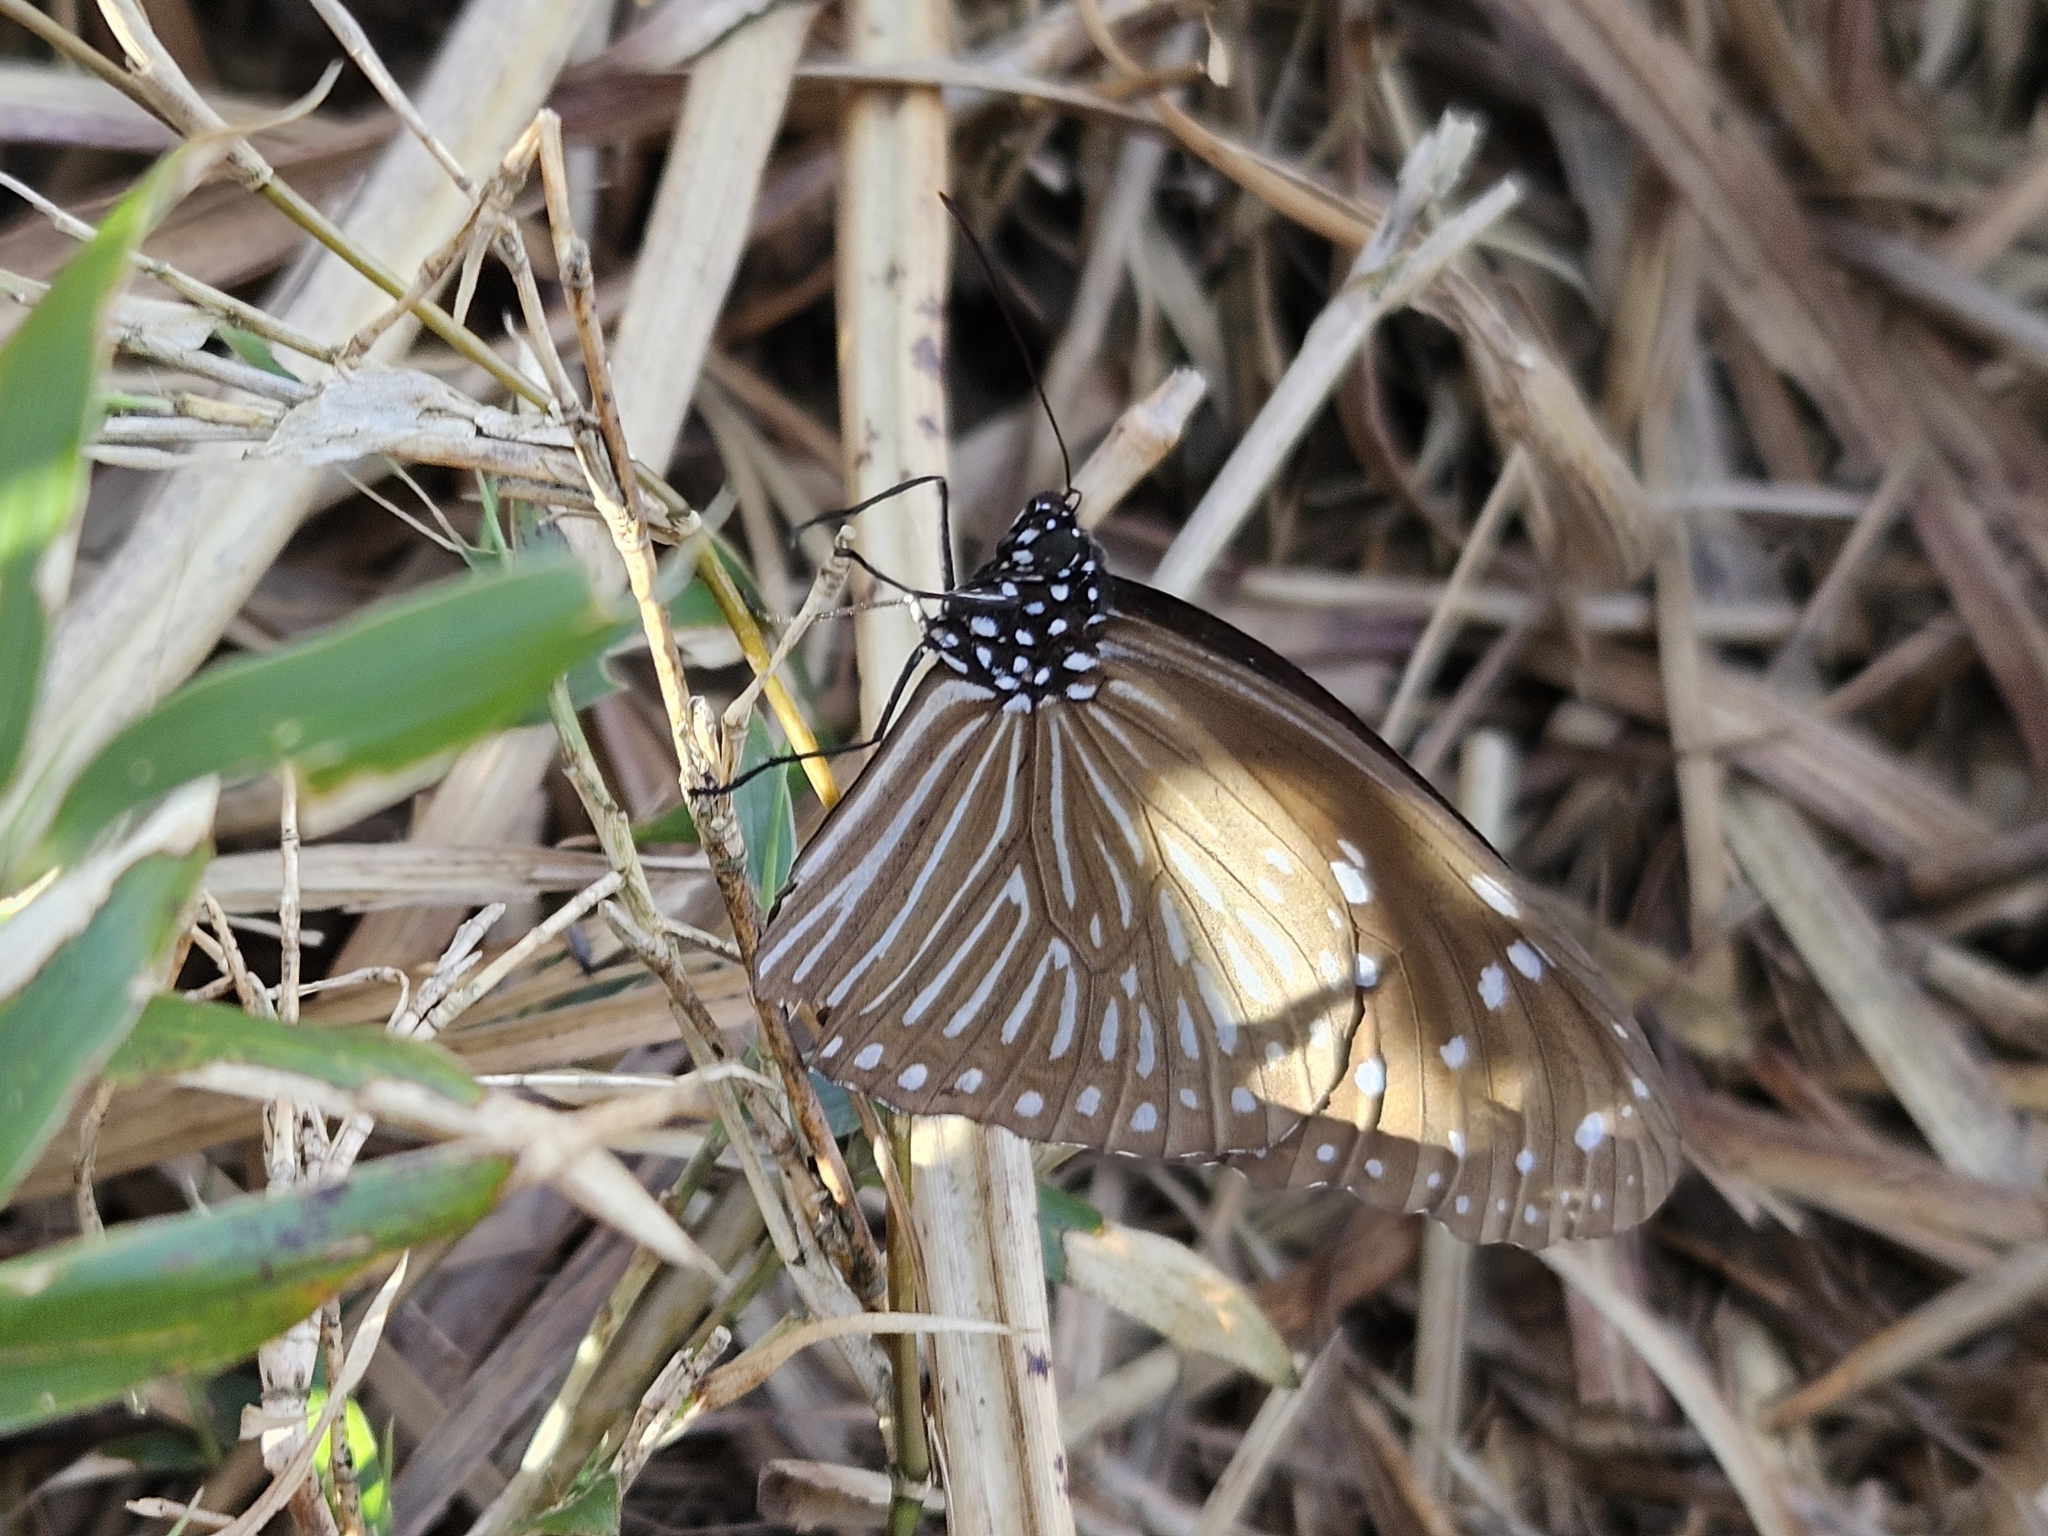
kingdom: Animalia
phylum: Arthropoda
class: Insecta
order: Lepidoptera
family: Nymphalidae
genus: Euploea
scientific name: Euploea mulciber
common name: Striped blue crow butterfly
